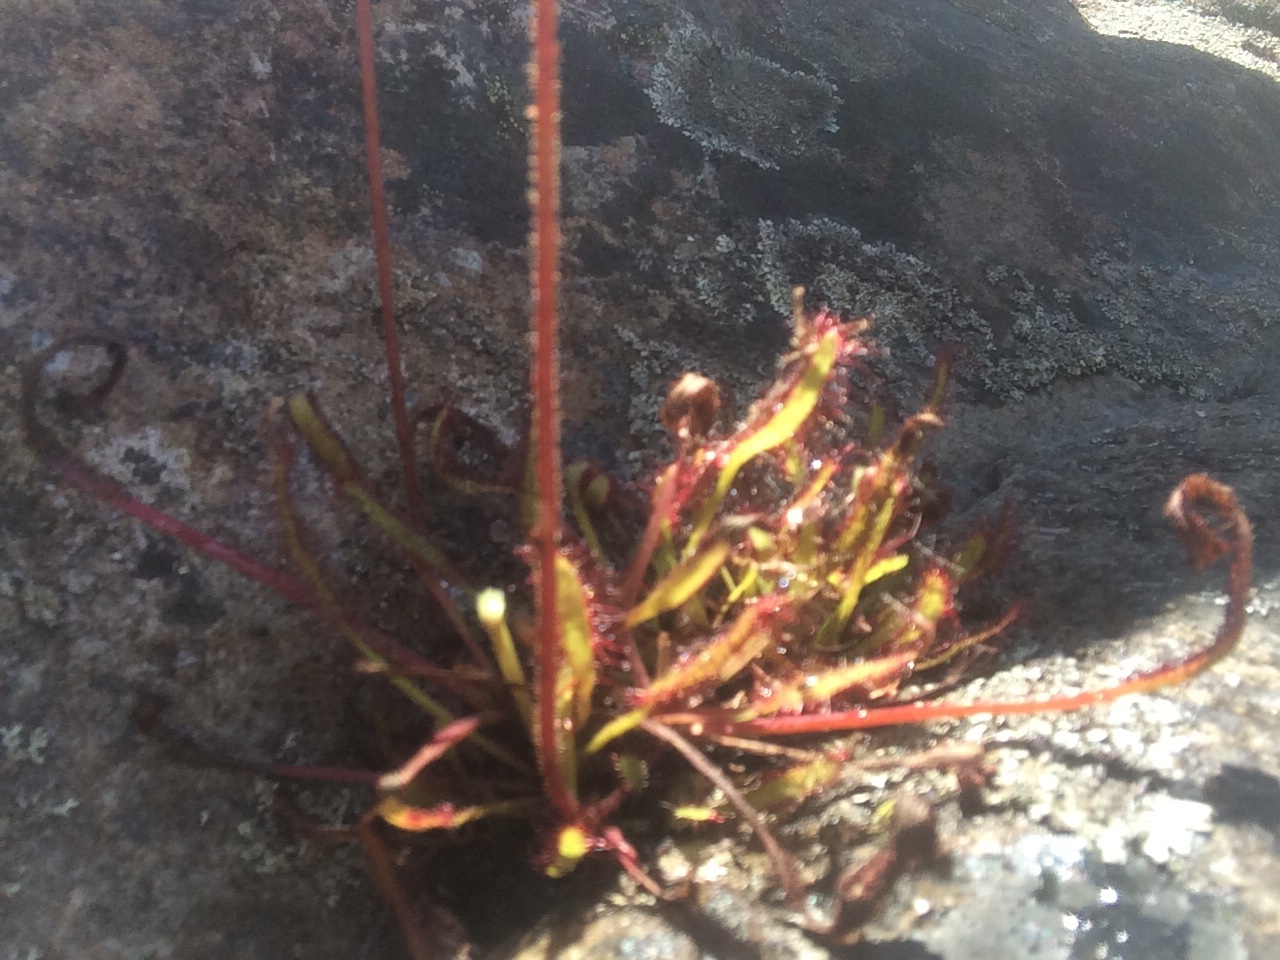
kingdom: Plantae
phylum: Tracheophyta
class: Magnoliopsida
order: Caryophyllales
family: Droseraceae
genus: Drosera
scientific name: Drosera capensis
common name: Cape sundew
